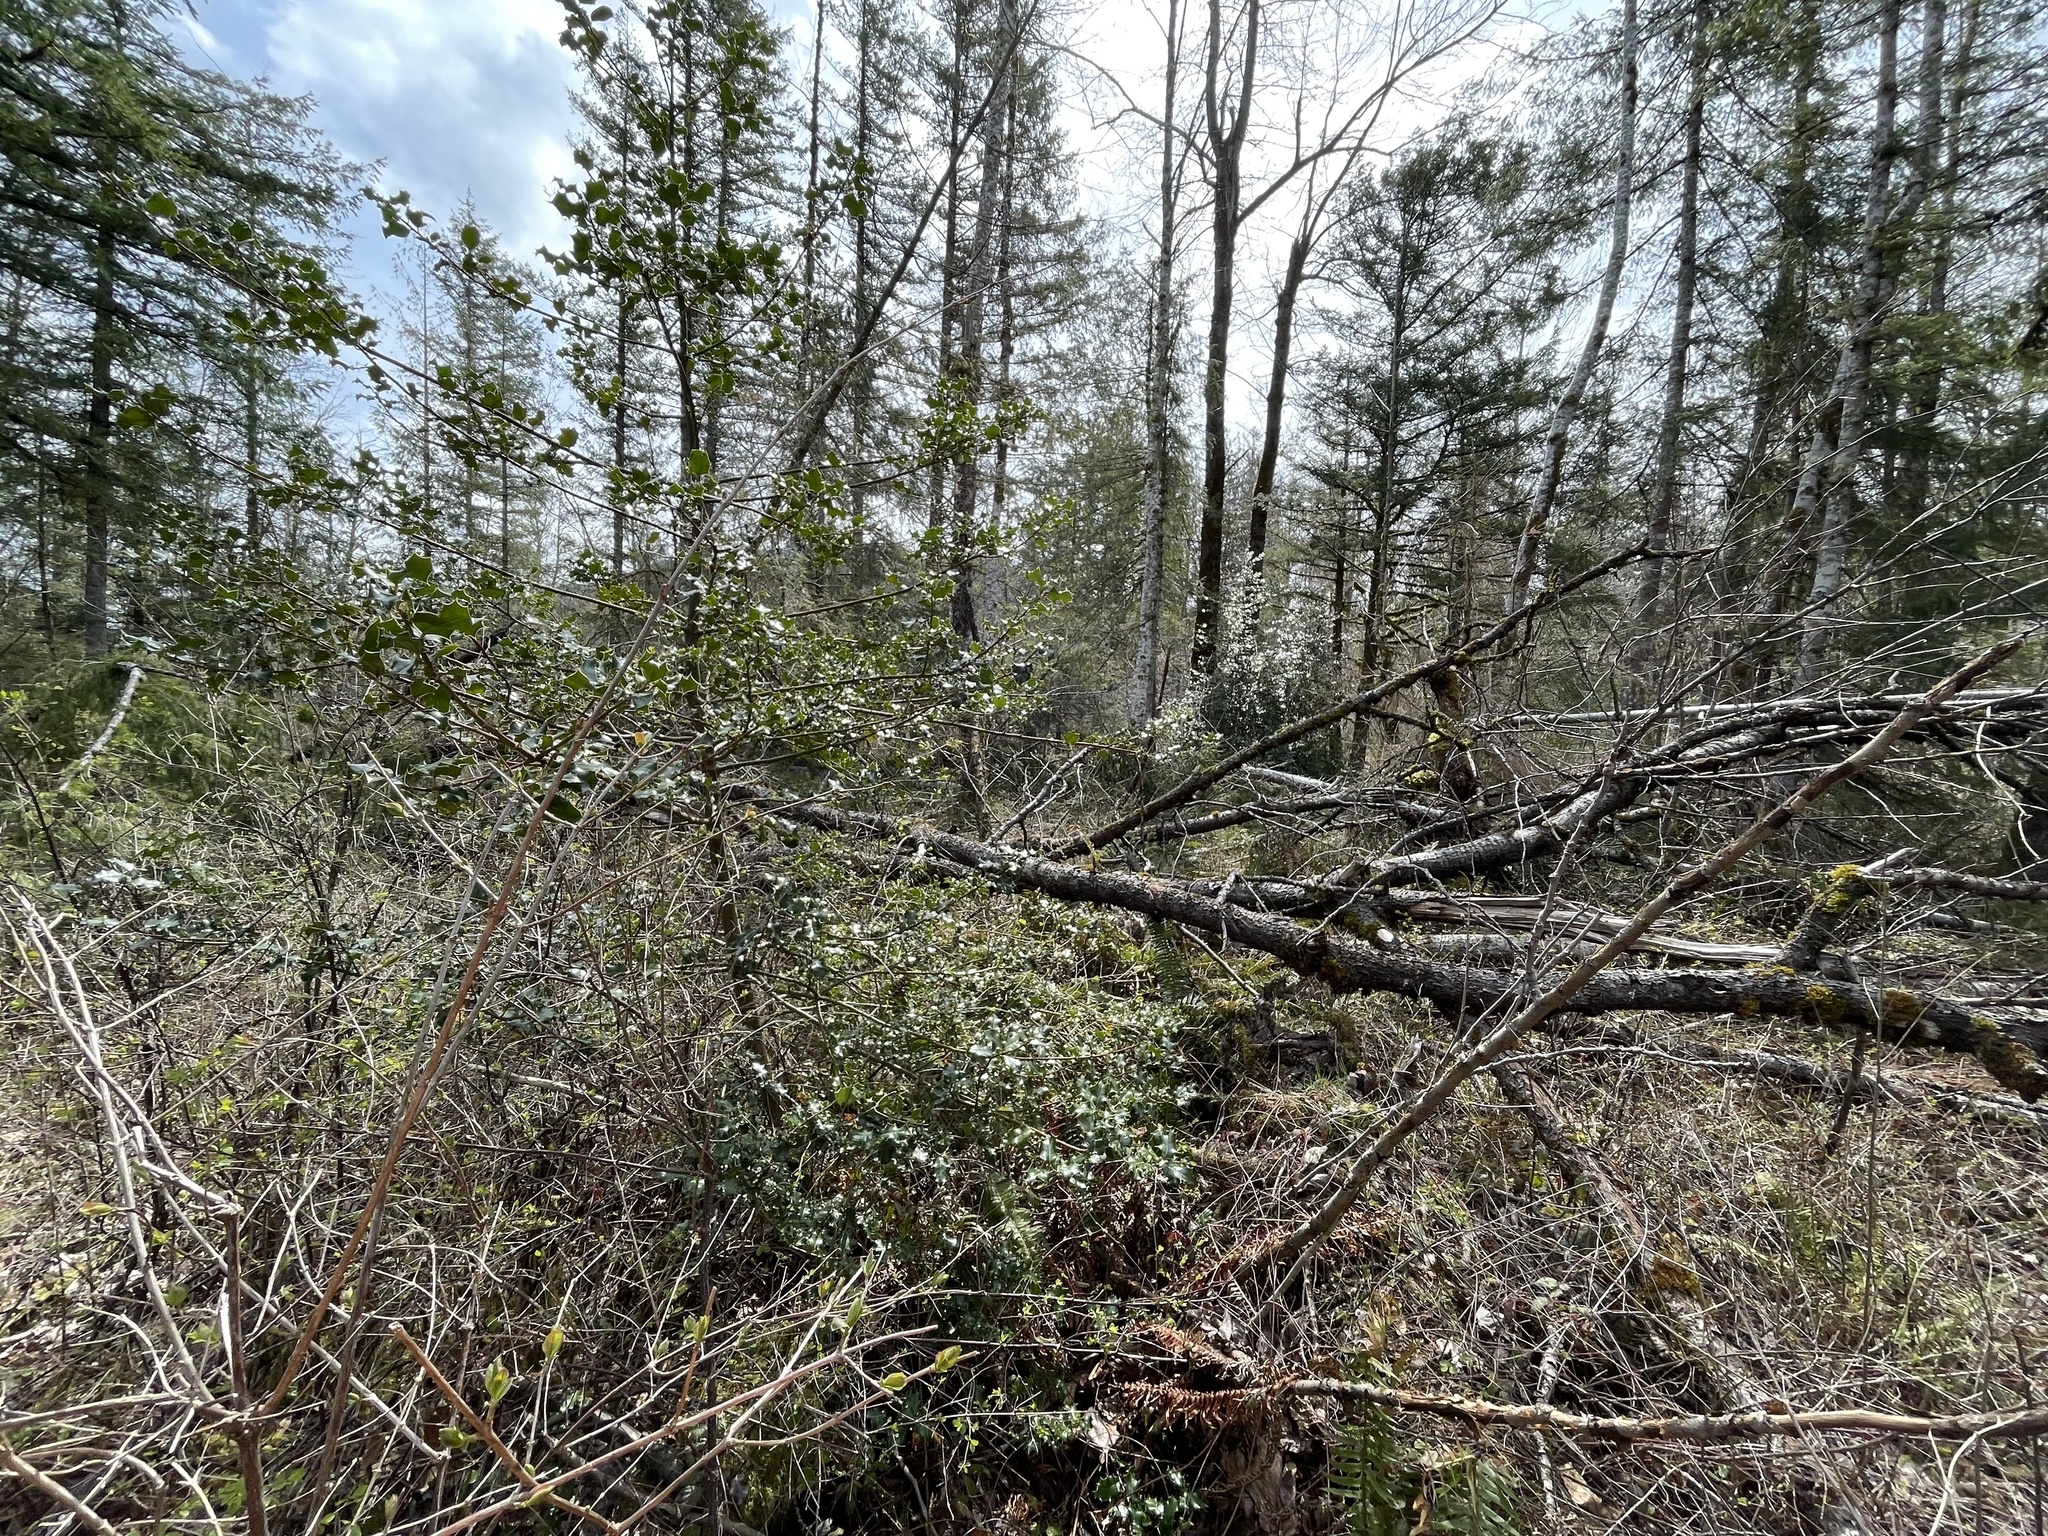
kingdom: Plantae
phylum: Tracheophyta
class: Magnoliopsida
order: Aquifoliales
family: Aquifoliaceae
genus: Ilex
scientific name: Ilex aquifolium
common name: English holly
